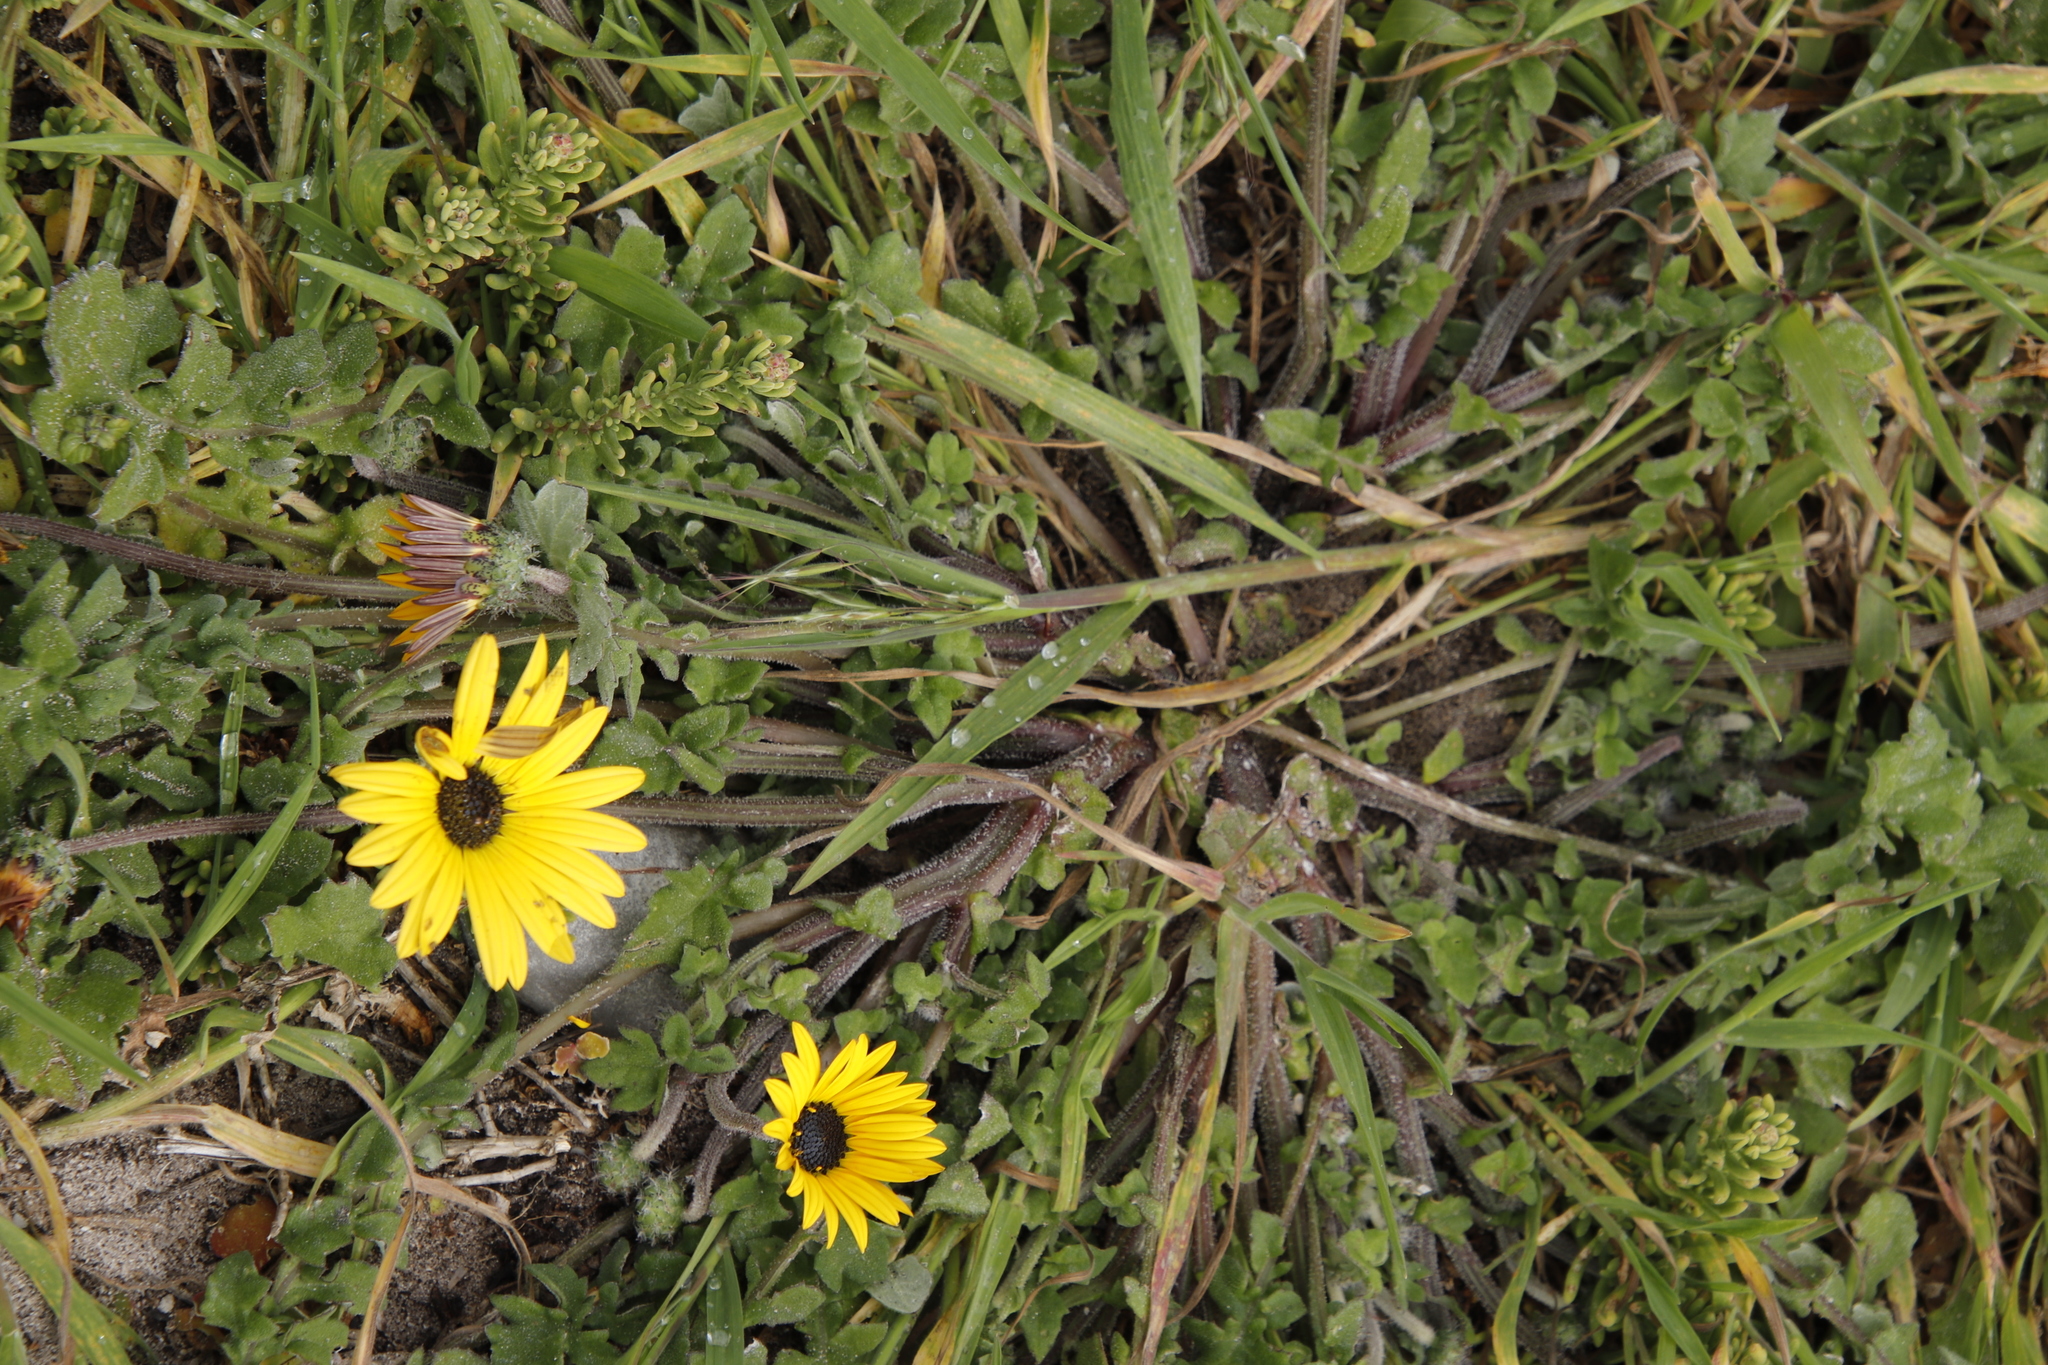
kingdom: Plantae
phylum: Tracheophyta
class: Magnoliopsida
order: Asterales
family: Asteraceae
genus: Arctotheca
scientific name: Arctotheca calendula
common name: Capeweed
